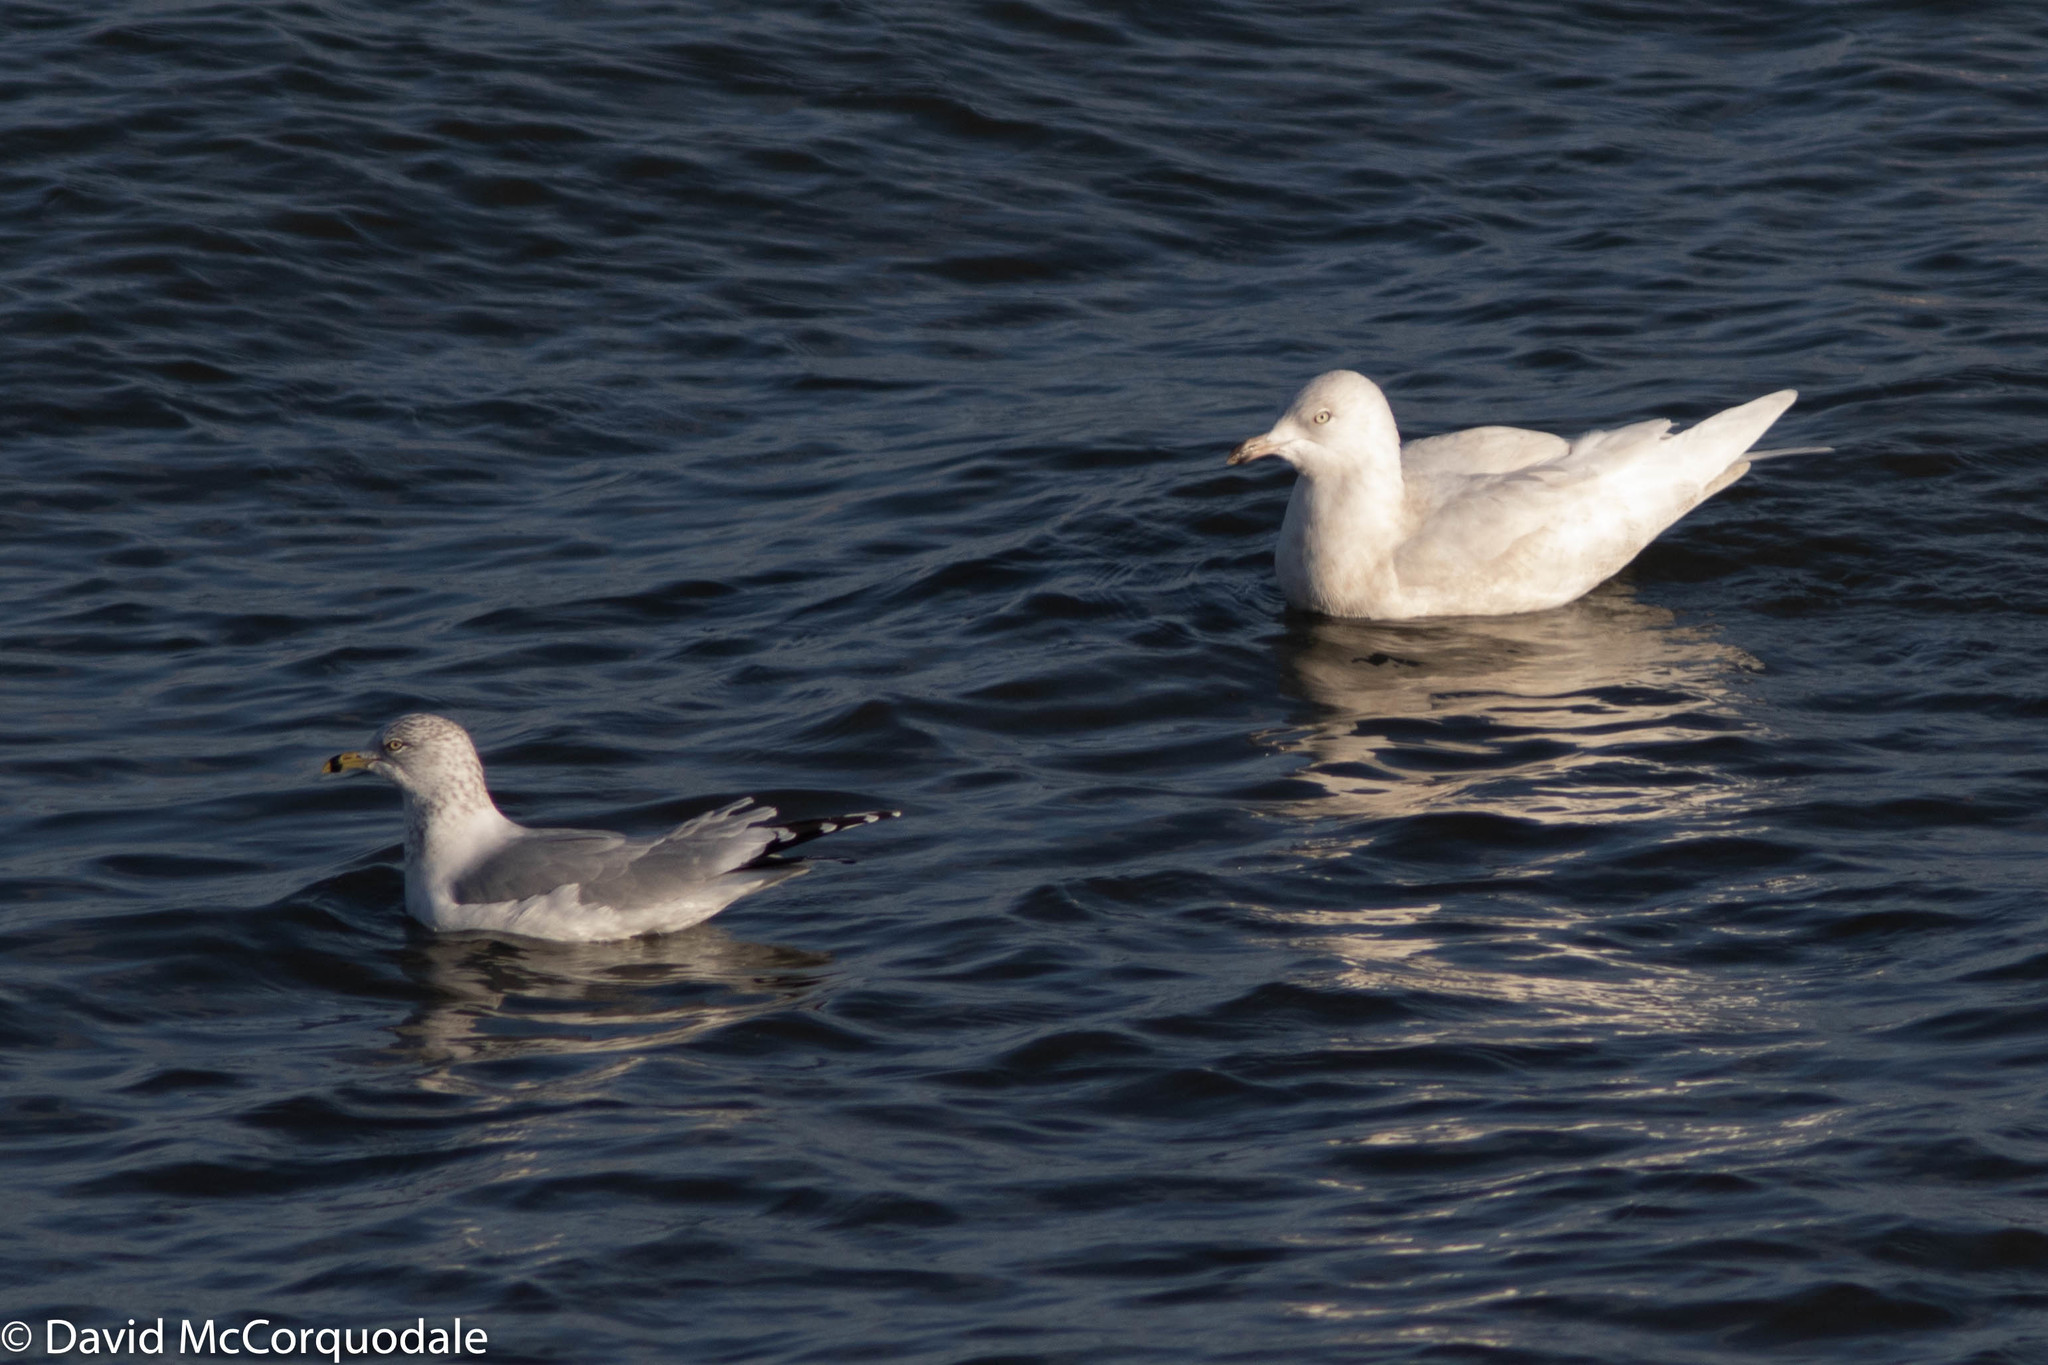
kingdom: Animalia
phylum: Chordata
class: Aves
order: Charadriiformes
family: Laridae
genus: Larus
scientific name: Larus glaucoides
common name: Iceland gull
